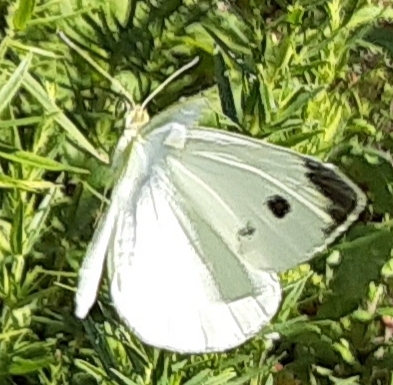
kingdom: Animalia
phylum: Arthropoda
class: Insecta
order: Lepidoptera
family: Pieridae
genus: Pieris
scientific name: Pieris rapae
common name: Small white
